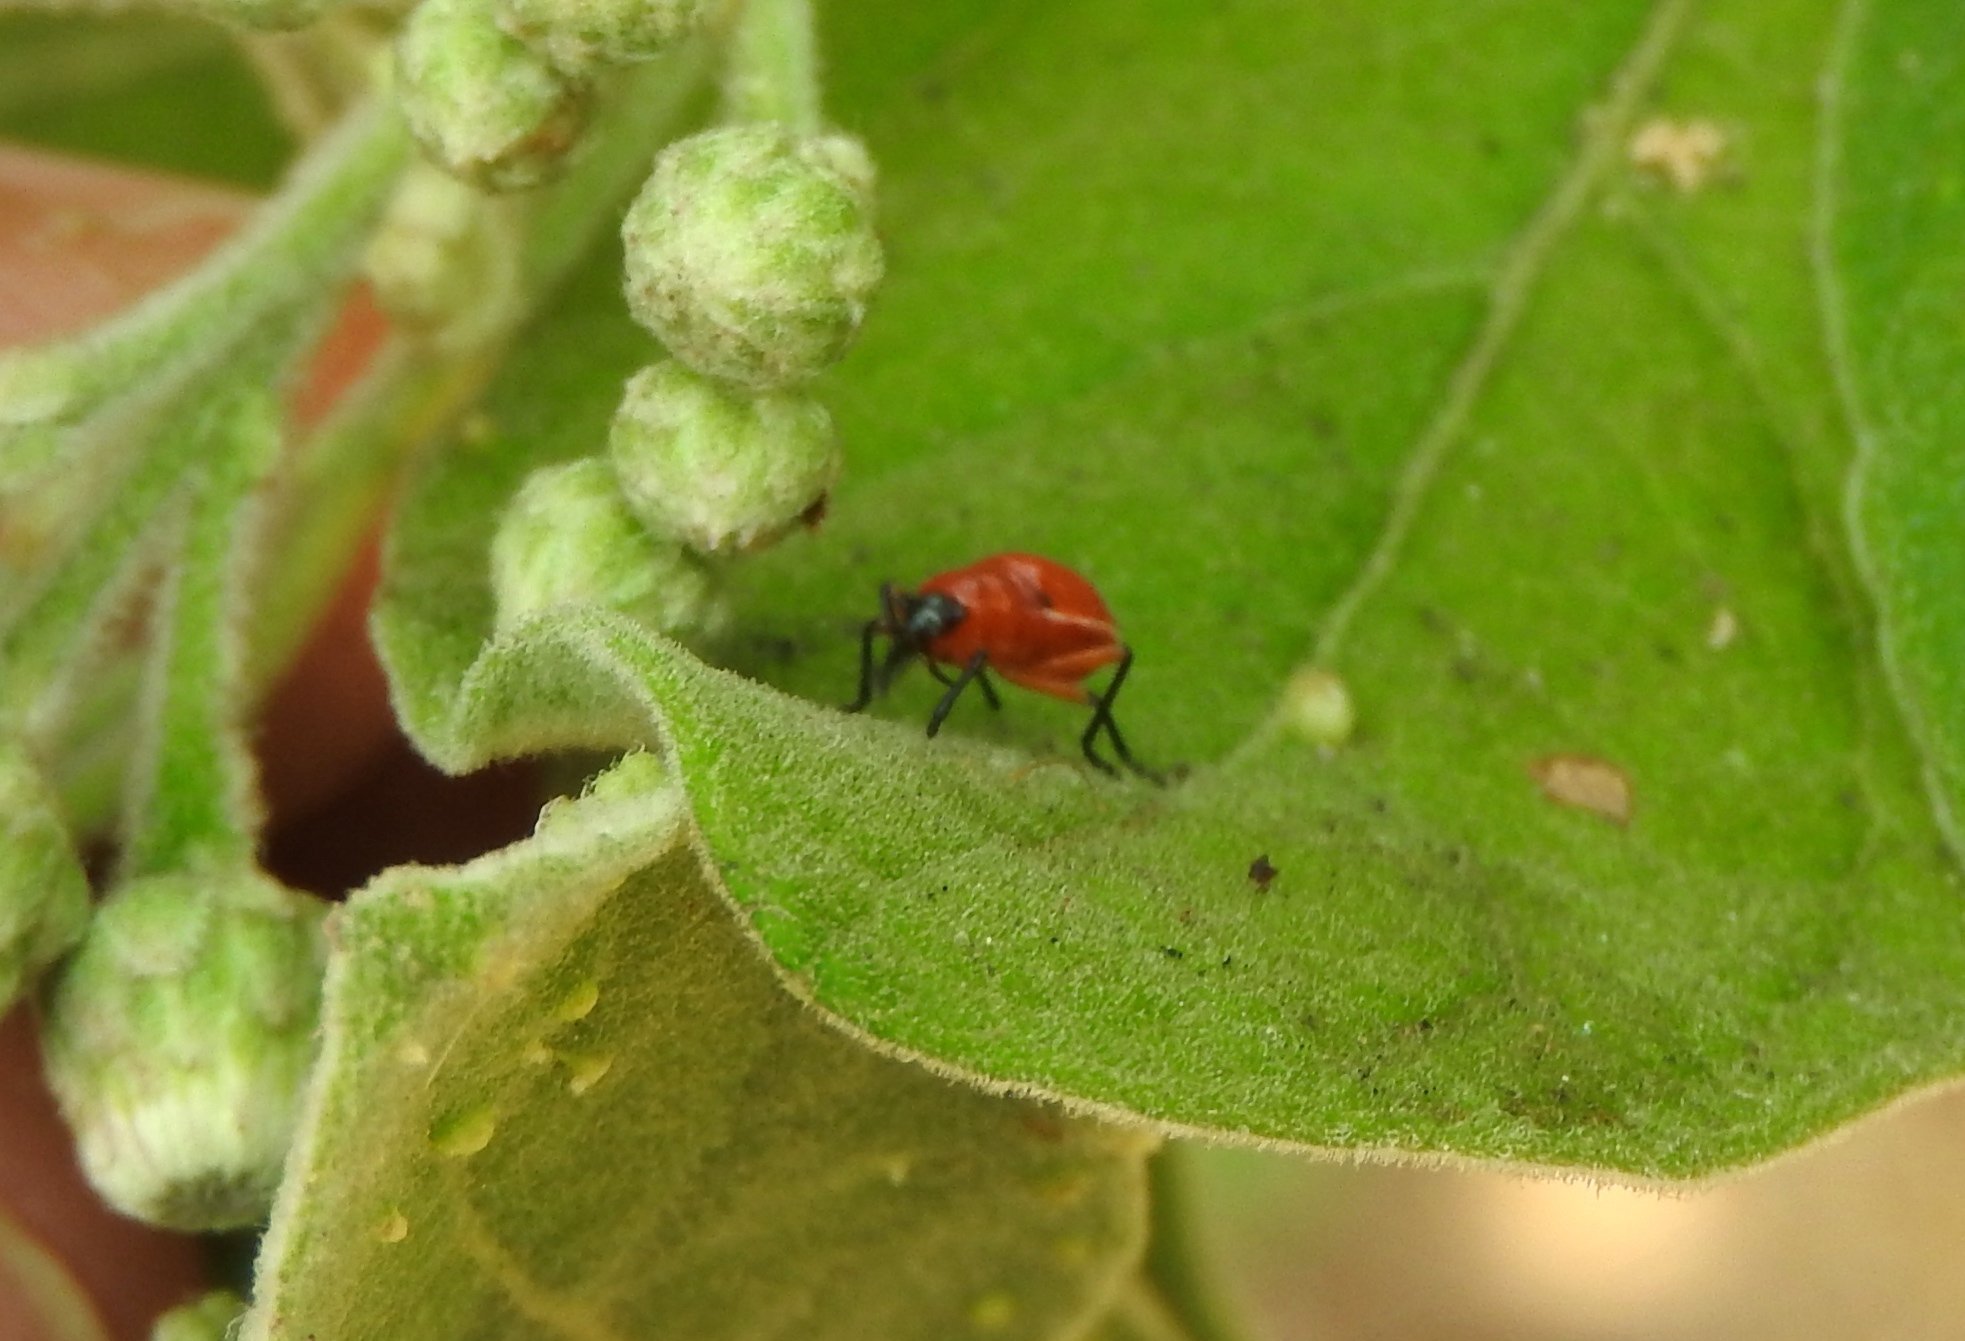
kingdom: Animalia
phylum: Arthropoda
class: Insecta
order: Hemiptera
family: Largidae
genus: Largus
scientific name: Largus
